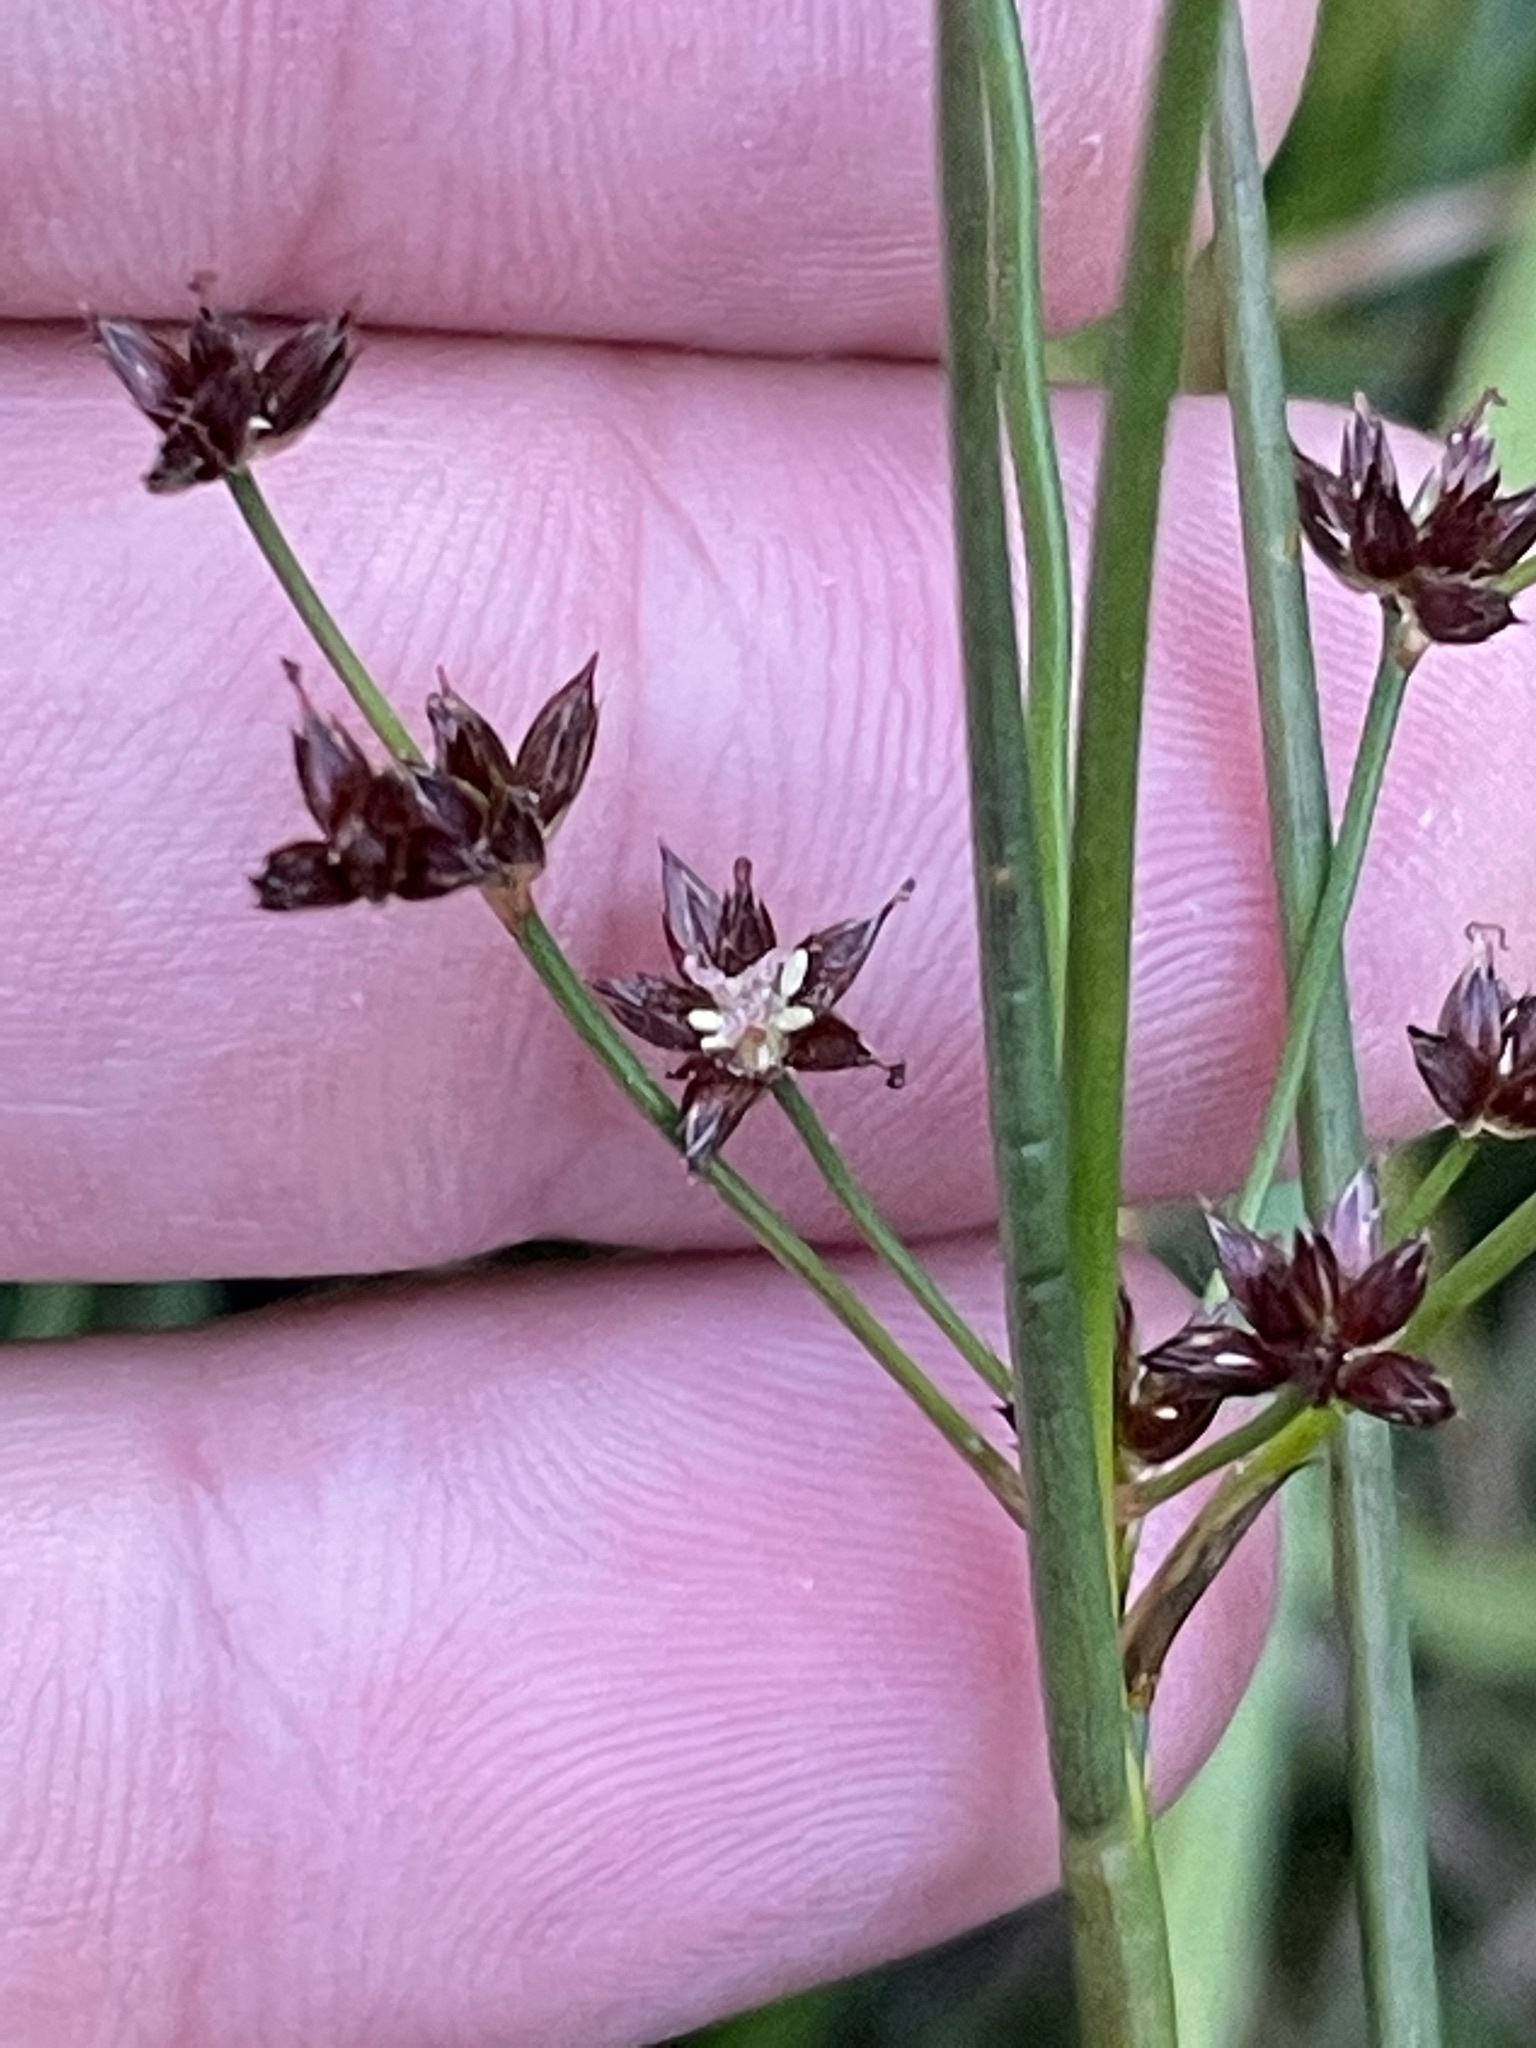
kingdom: Plantae
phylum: Tracheophyta
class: Liliopsida
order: Poales
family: Juncaceae
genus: Juncus
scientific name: Juncus articulatus
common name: Jointed rush
